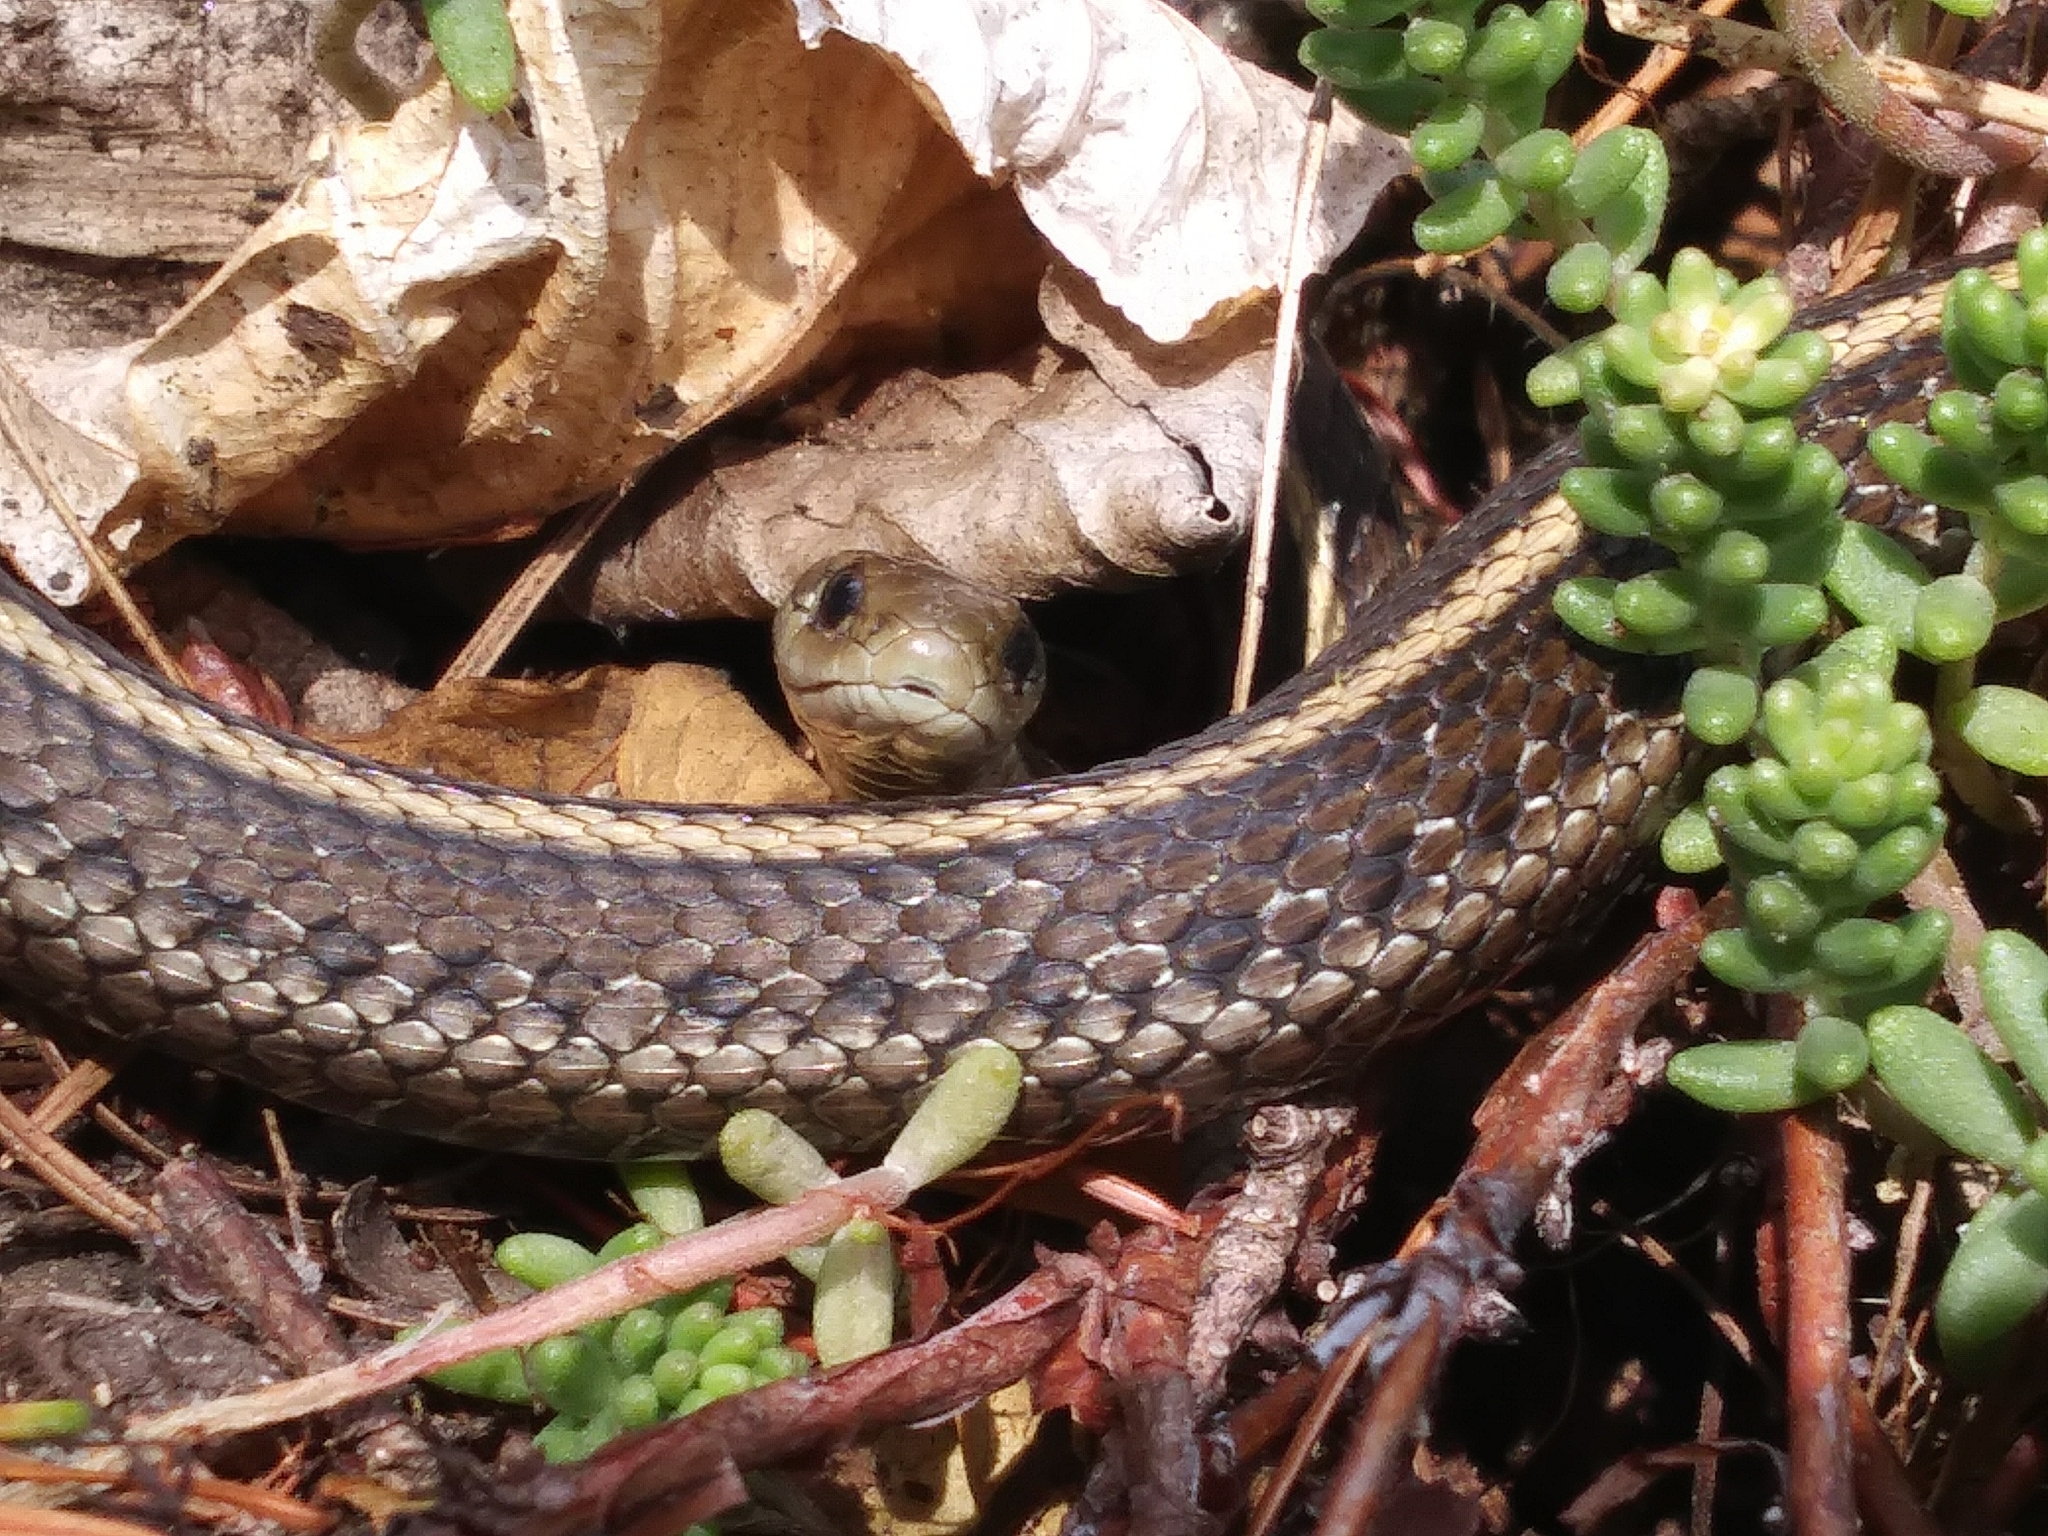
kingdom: Animalia
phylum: Chordata
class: Squamata
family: Colubridae
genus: Thamnophis
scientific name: Thamnophis ordinoides
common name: Northwestern garter snake
